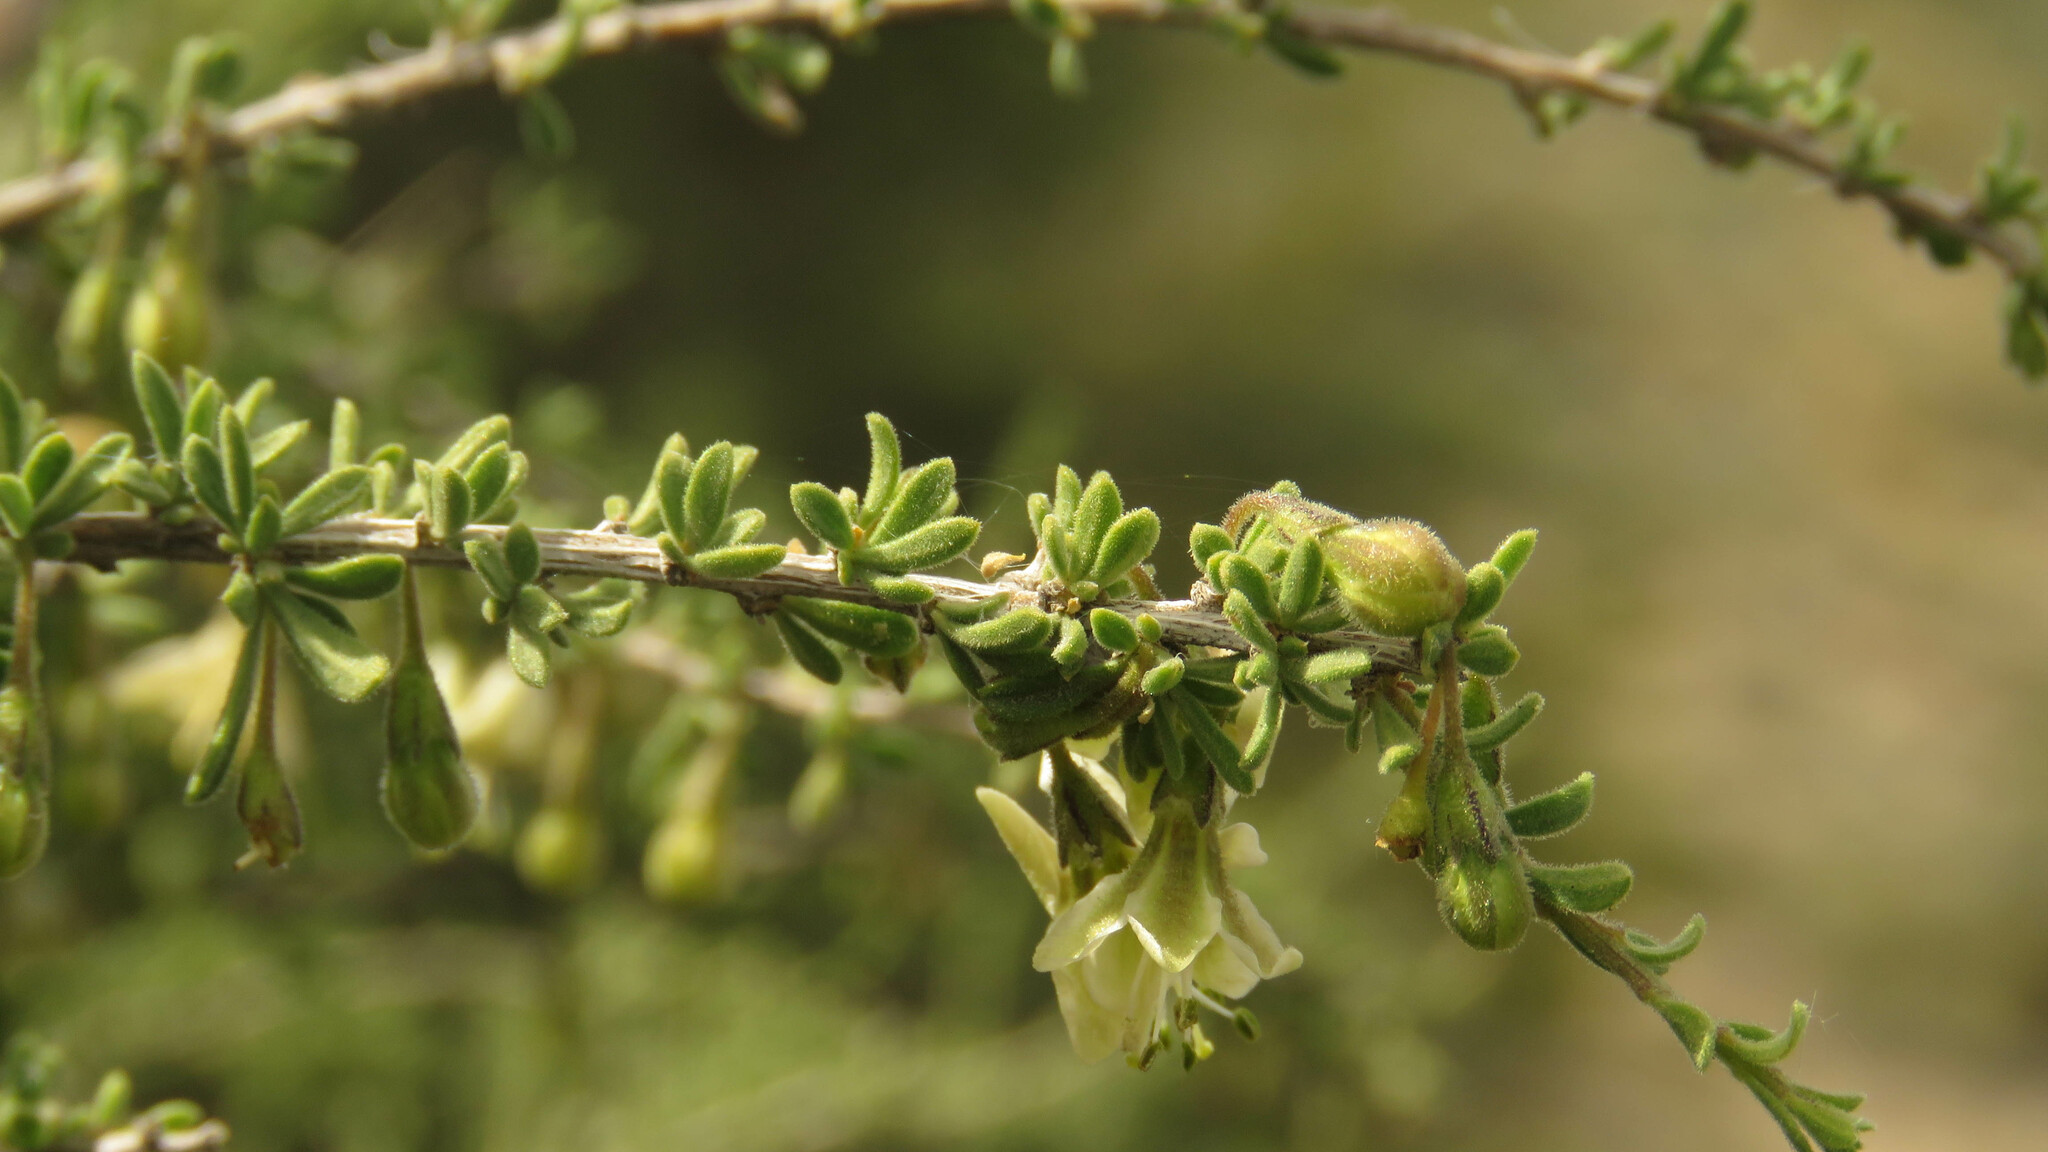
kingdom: Plantae
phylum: Tracheophyta
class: Magnoliopsida
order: Solanales
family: Solanaceae
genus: Lycium
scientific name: Lycium chilense
